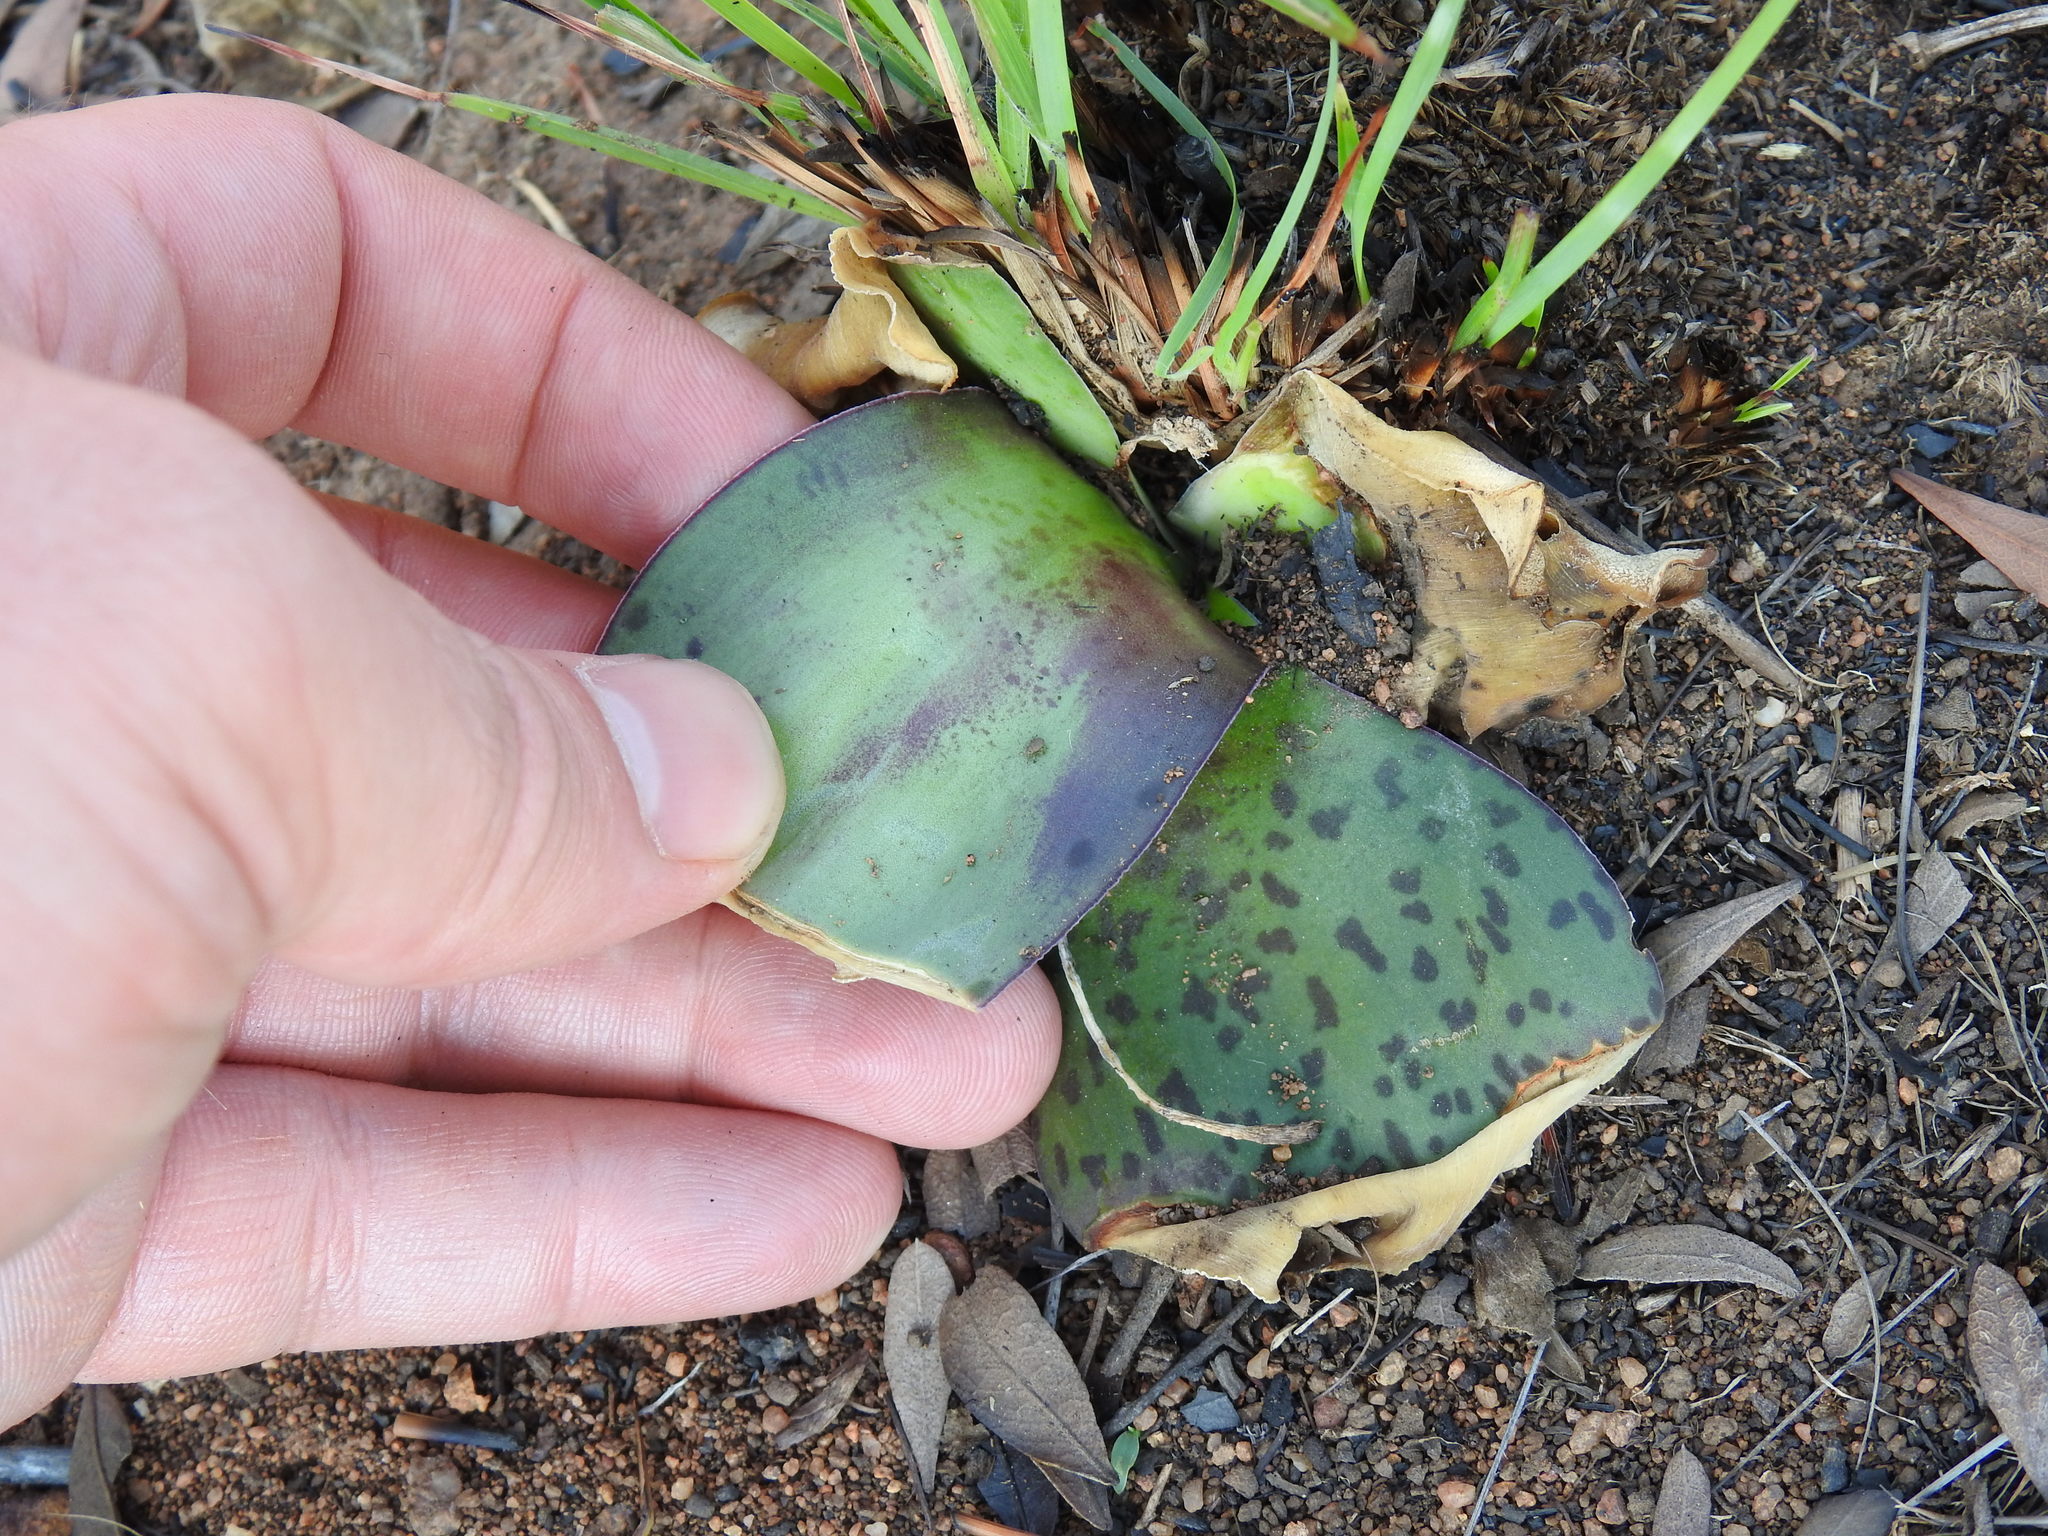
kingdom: Plantae
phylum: Tracheophyta
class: Liliopsida
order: Asparagales
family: Asparagaceae
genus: Ledebouria
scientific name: Ledebouria ovatifolia
